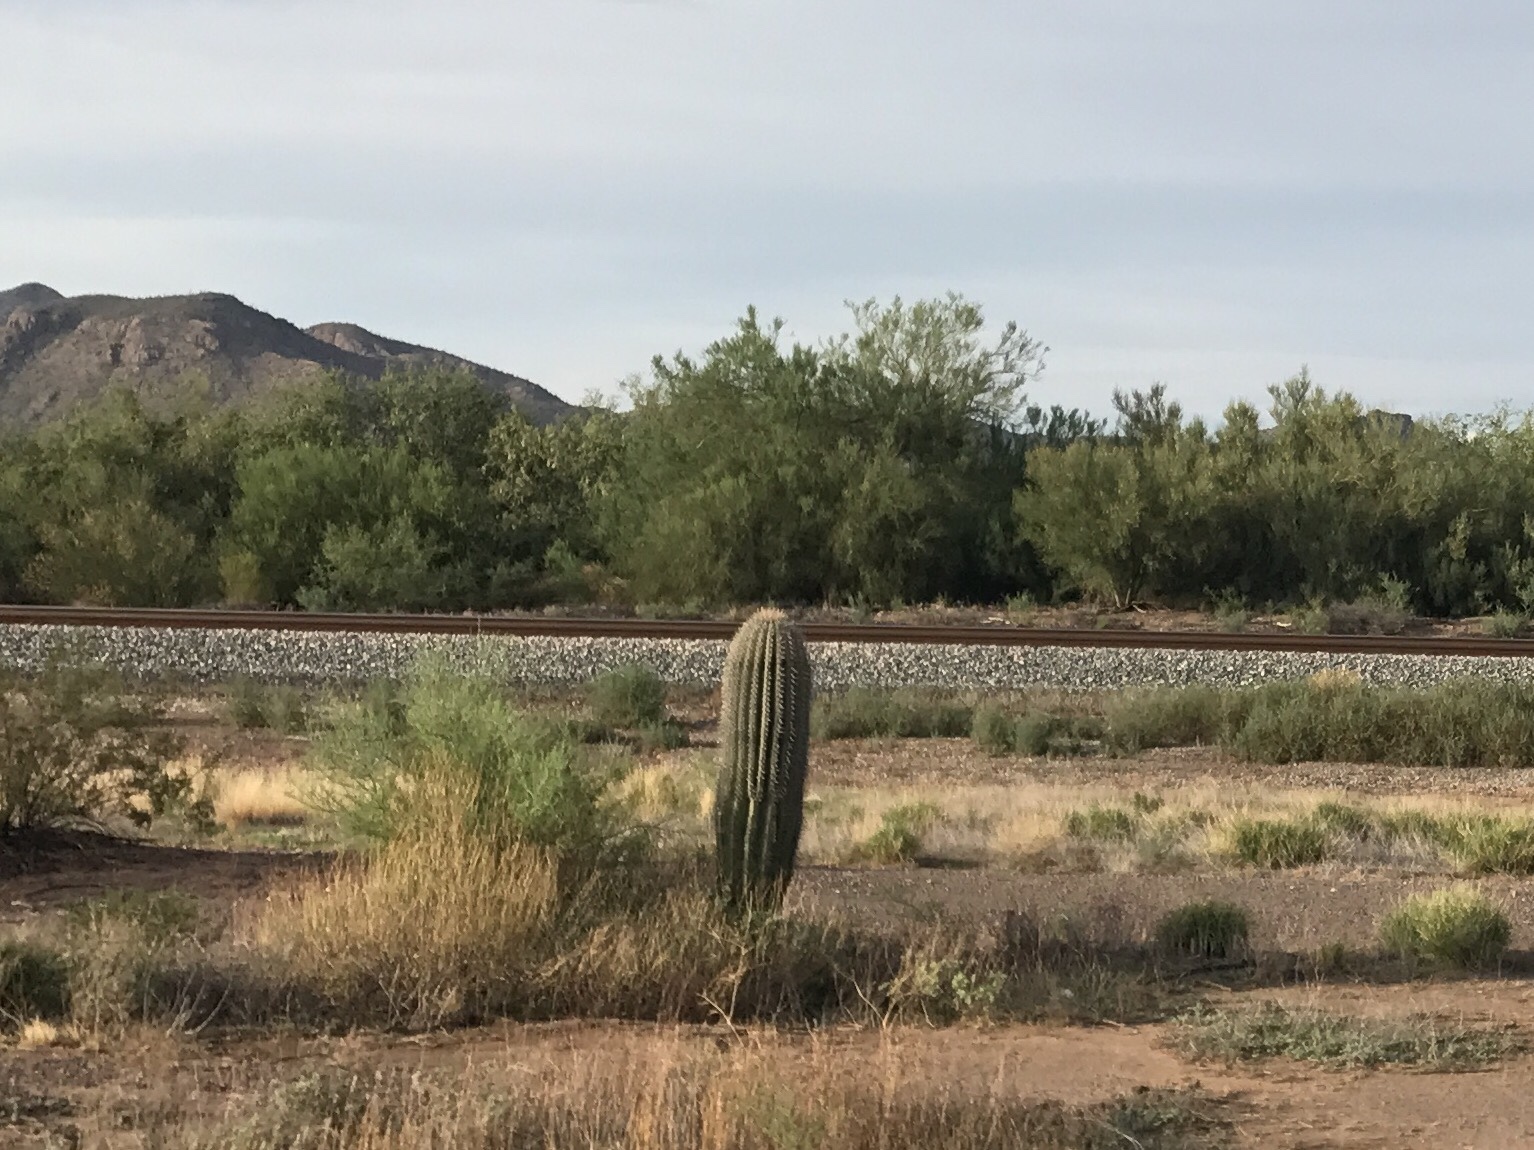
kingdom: Plantae
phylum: Tracheophyta
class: Magnoliopsida
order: Caryophyllales
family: Cactaceae
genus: Carnegiea
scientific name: Carnegiea gigantea
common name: Saguaro
